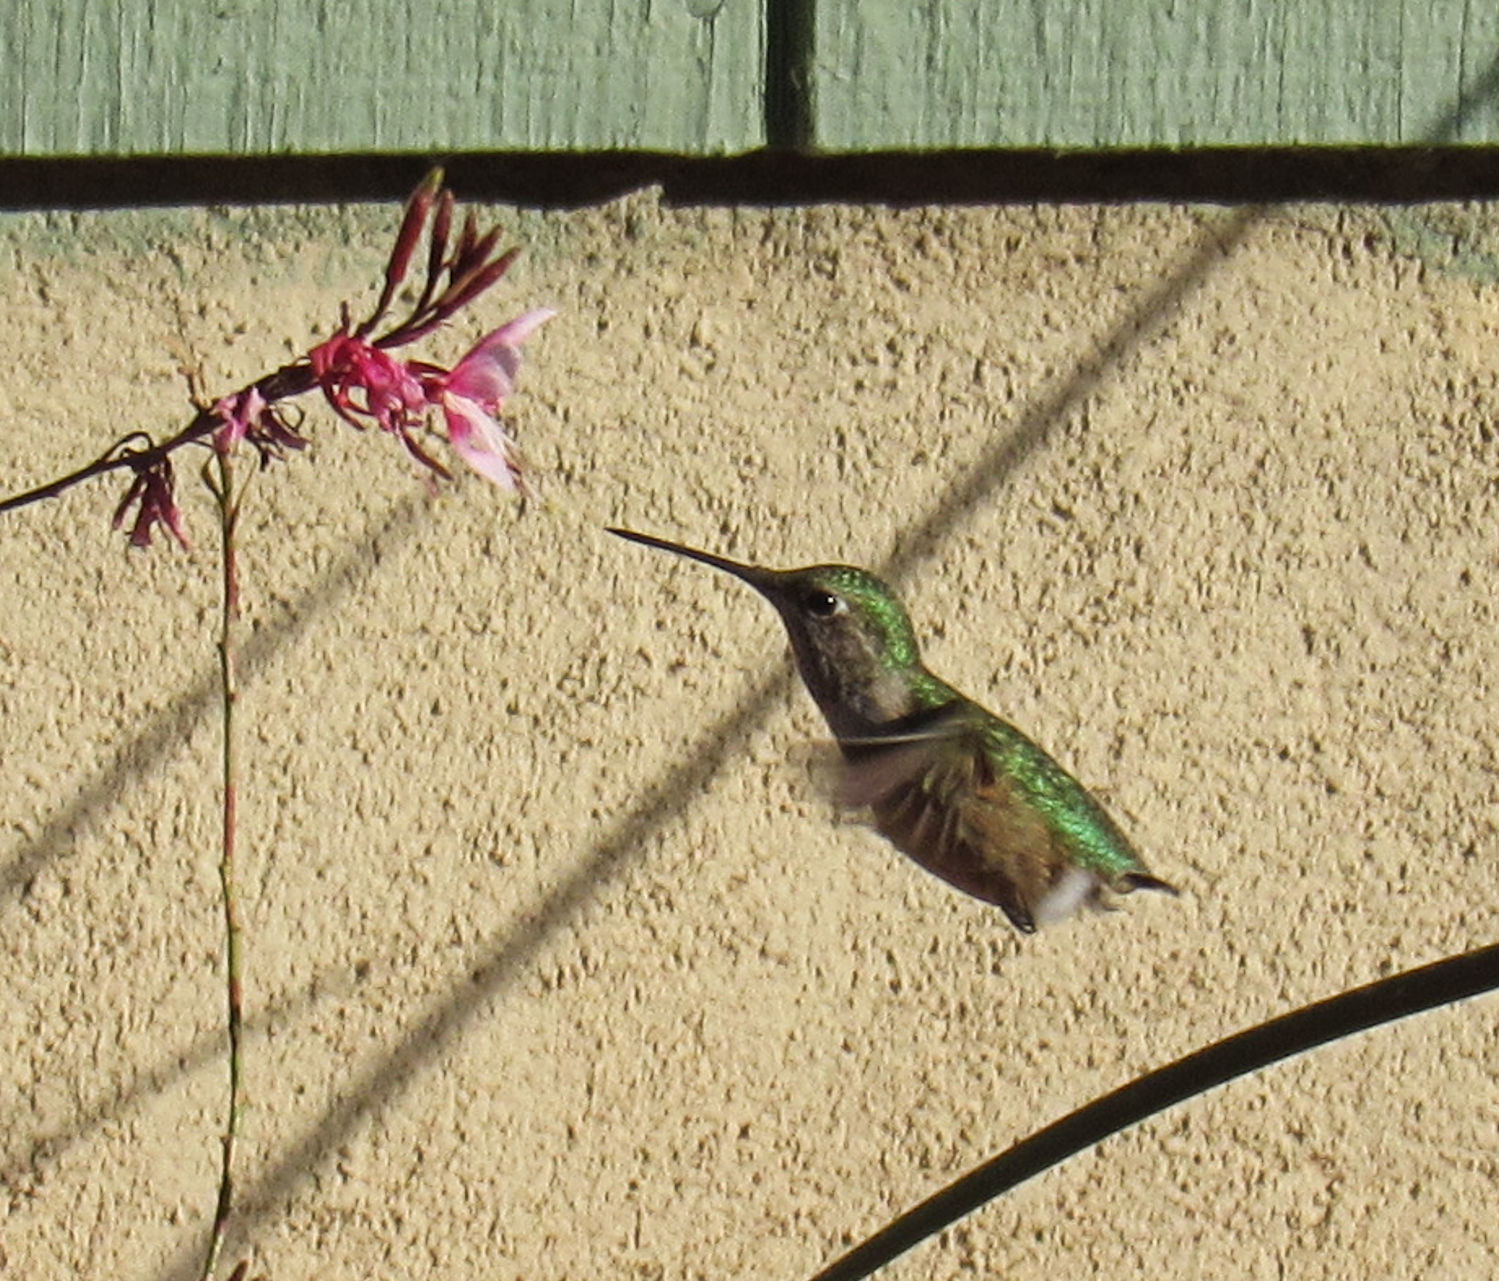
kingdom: Animalia
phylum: Chordata
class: Aves
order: Apodiformes
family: Trochilidae
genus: Selasphorus
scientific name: Selasphorus platycercus
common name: Broad-tailed hummingbird
